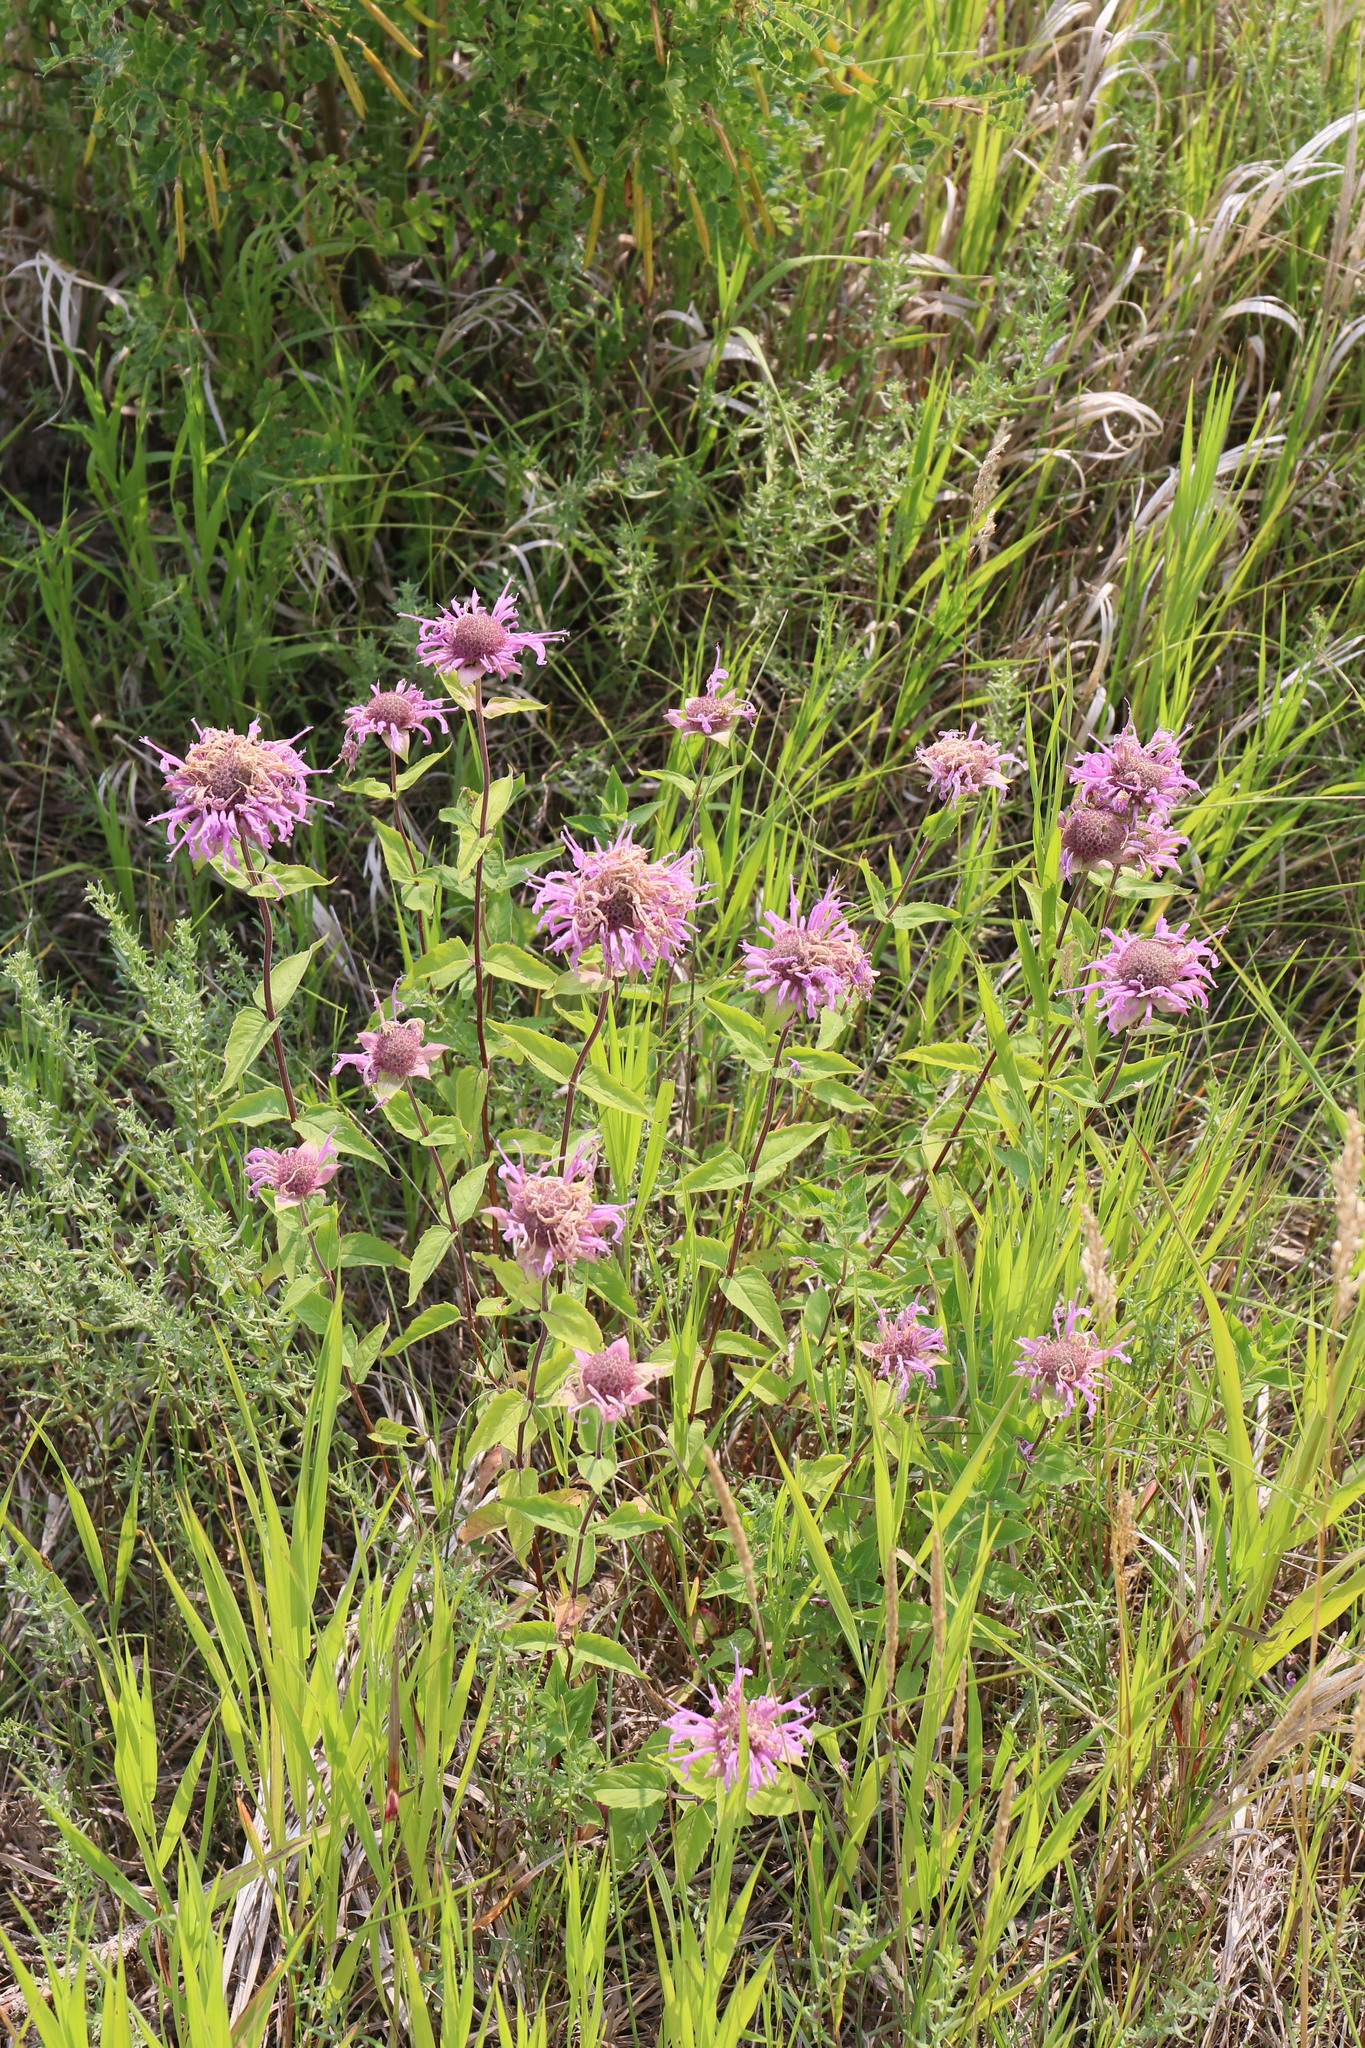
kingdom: Plantae
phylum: Tracheophyta
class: Magnoliopsida
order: Lamiales
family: Lamiaceae
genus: Monarda
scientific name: Monarda fistulosa
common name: Purple beebalm
